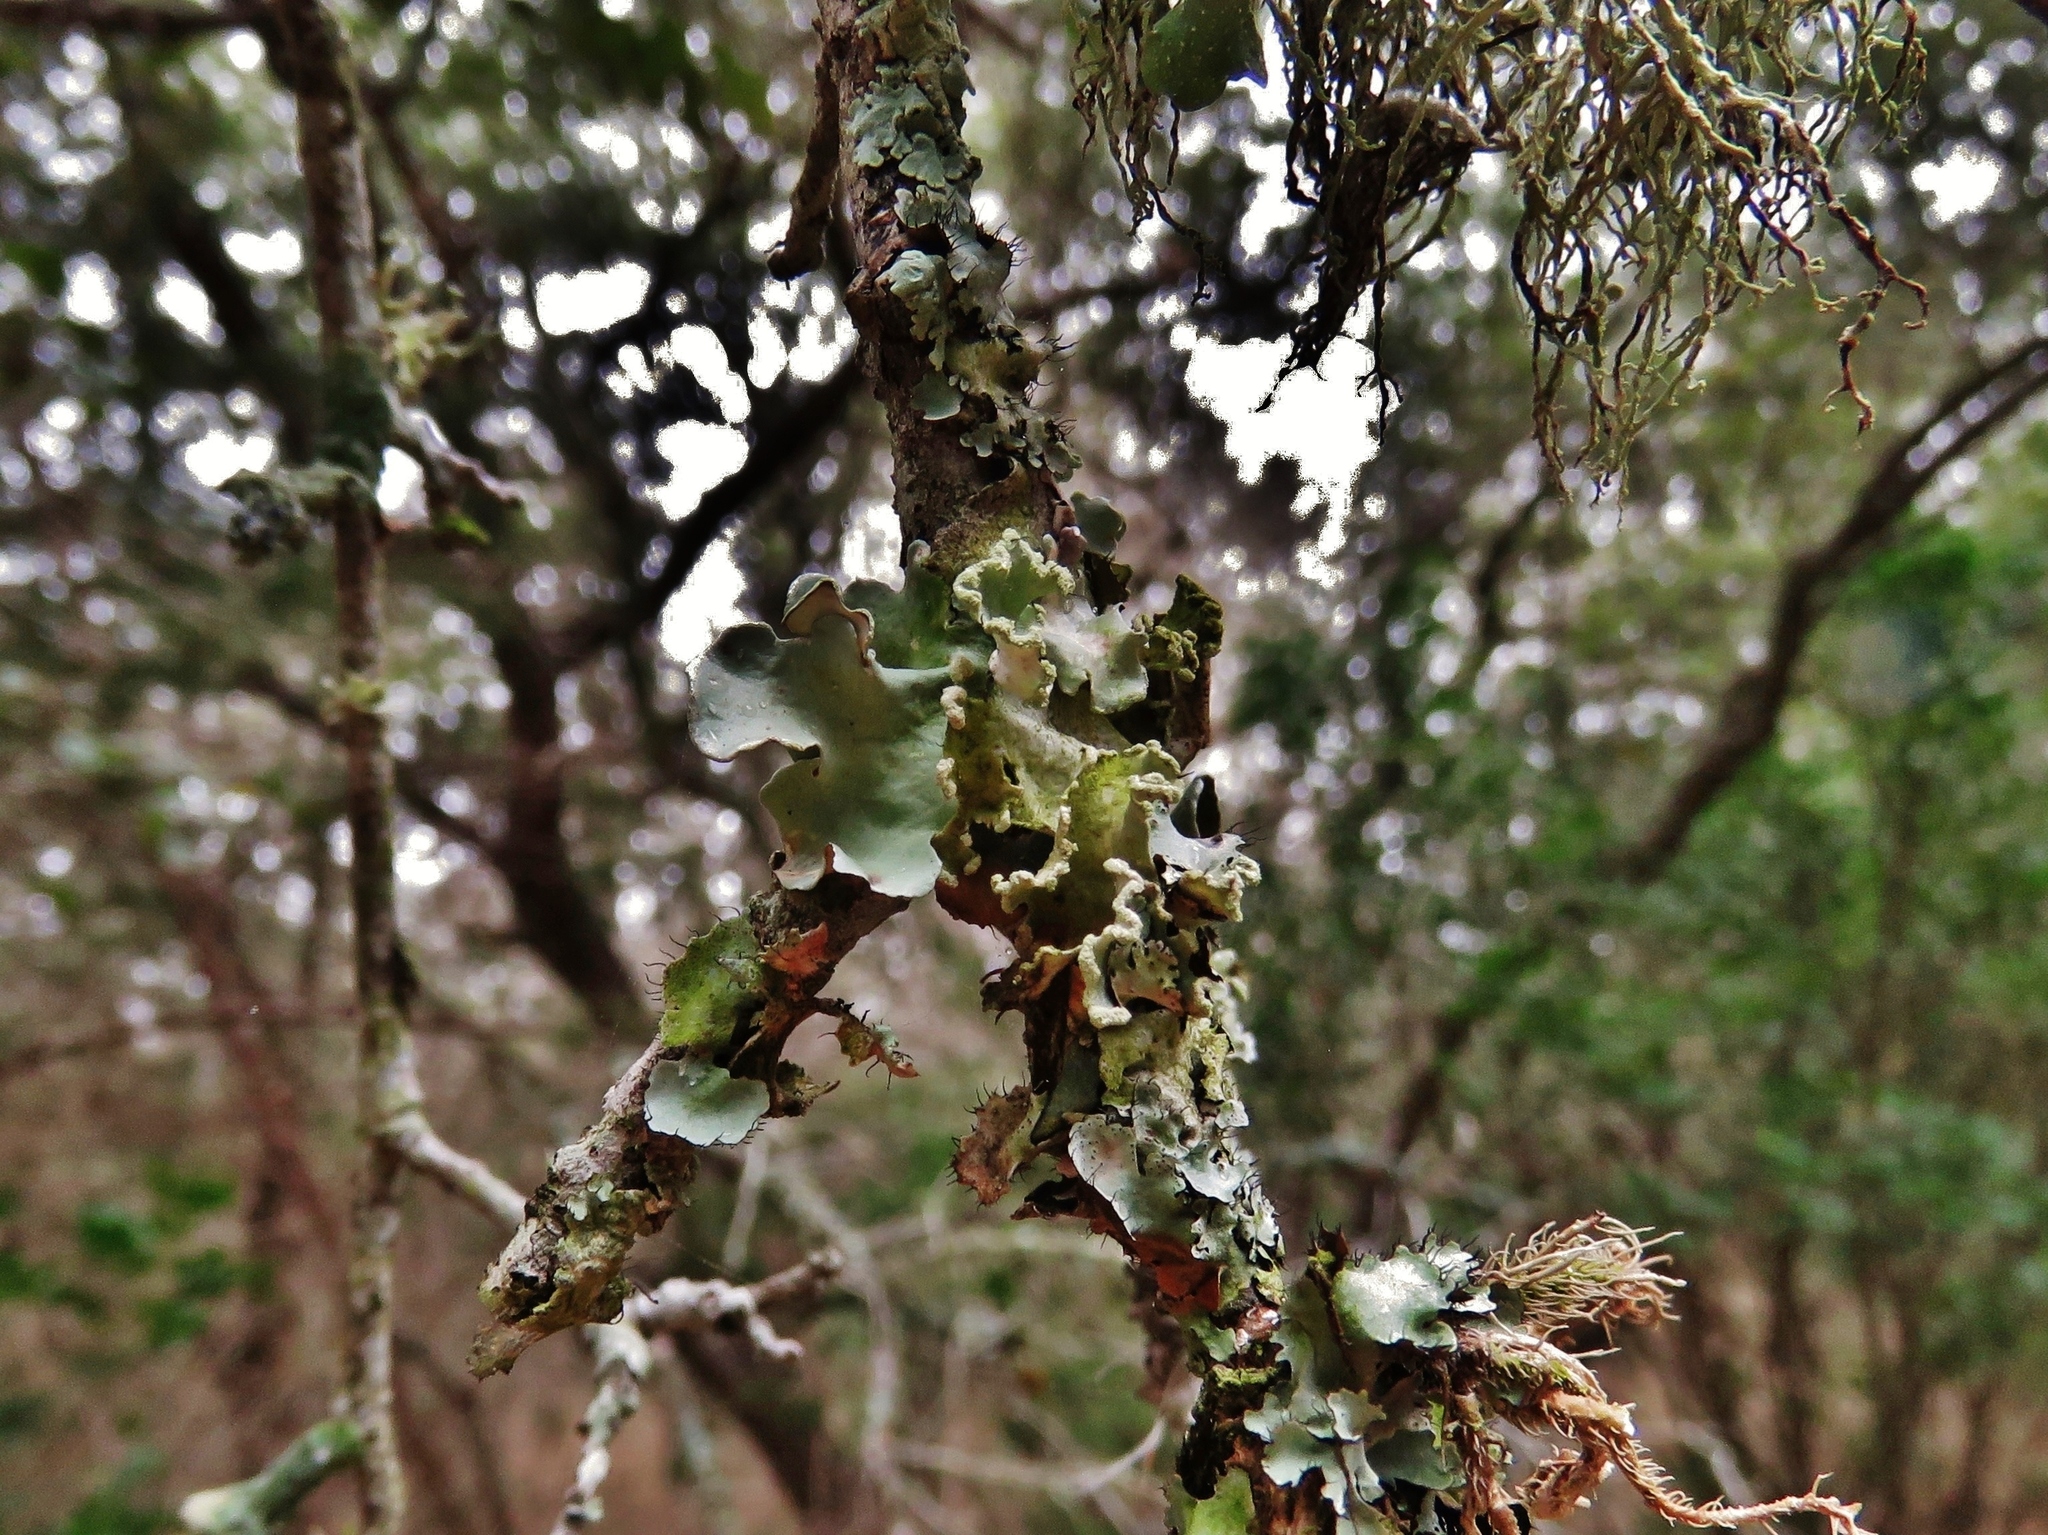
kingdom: Fungi
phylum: Ascomycota
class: Lecanoromycetes
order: Lecanorales
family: Parmeliaceae
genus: Parmotrema
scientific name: Parmotrema austrosinense
